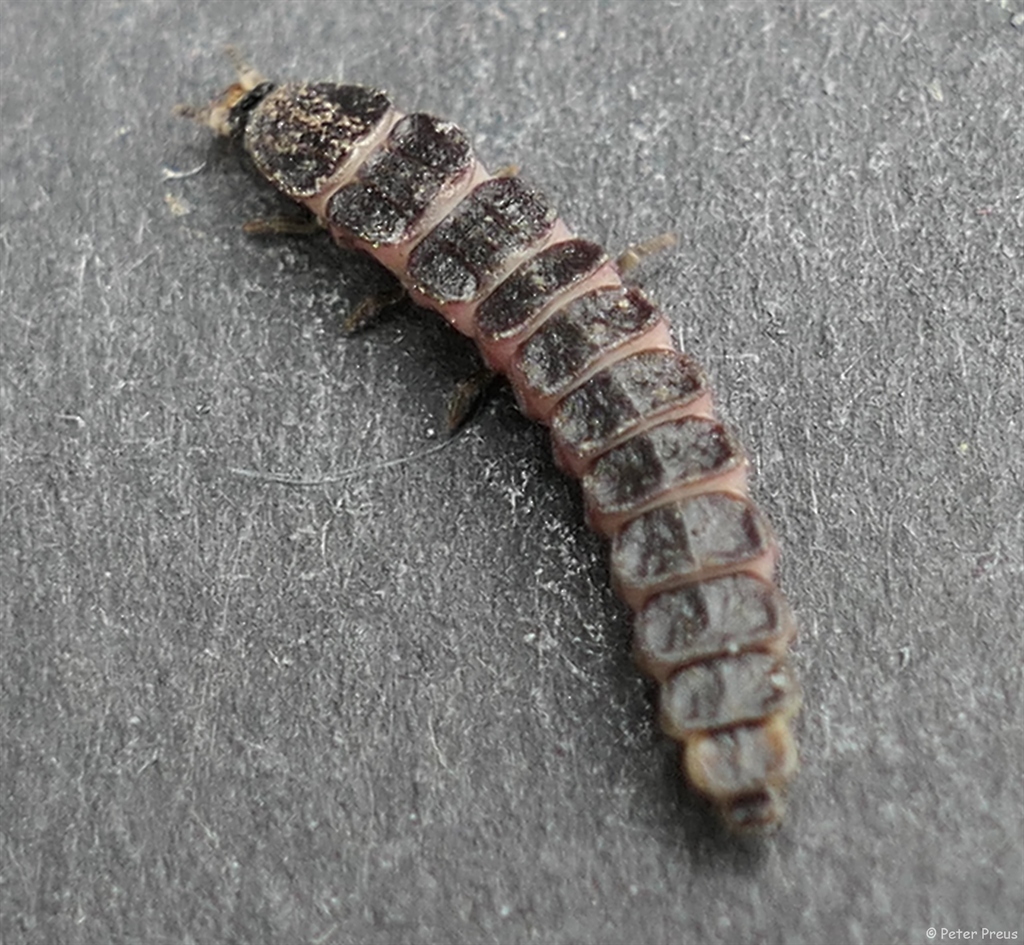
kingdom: Animalia
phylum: Arthropoda
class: Insecta
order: Coleoptera
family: Lampyridae
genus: Phosphaenus
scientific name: Phosphaenus hemipterus
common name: Short-winged firefly
